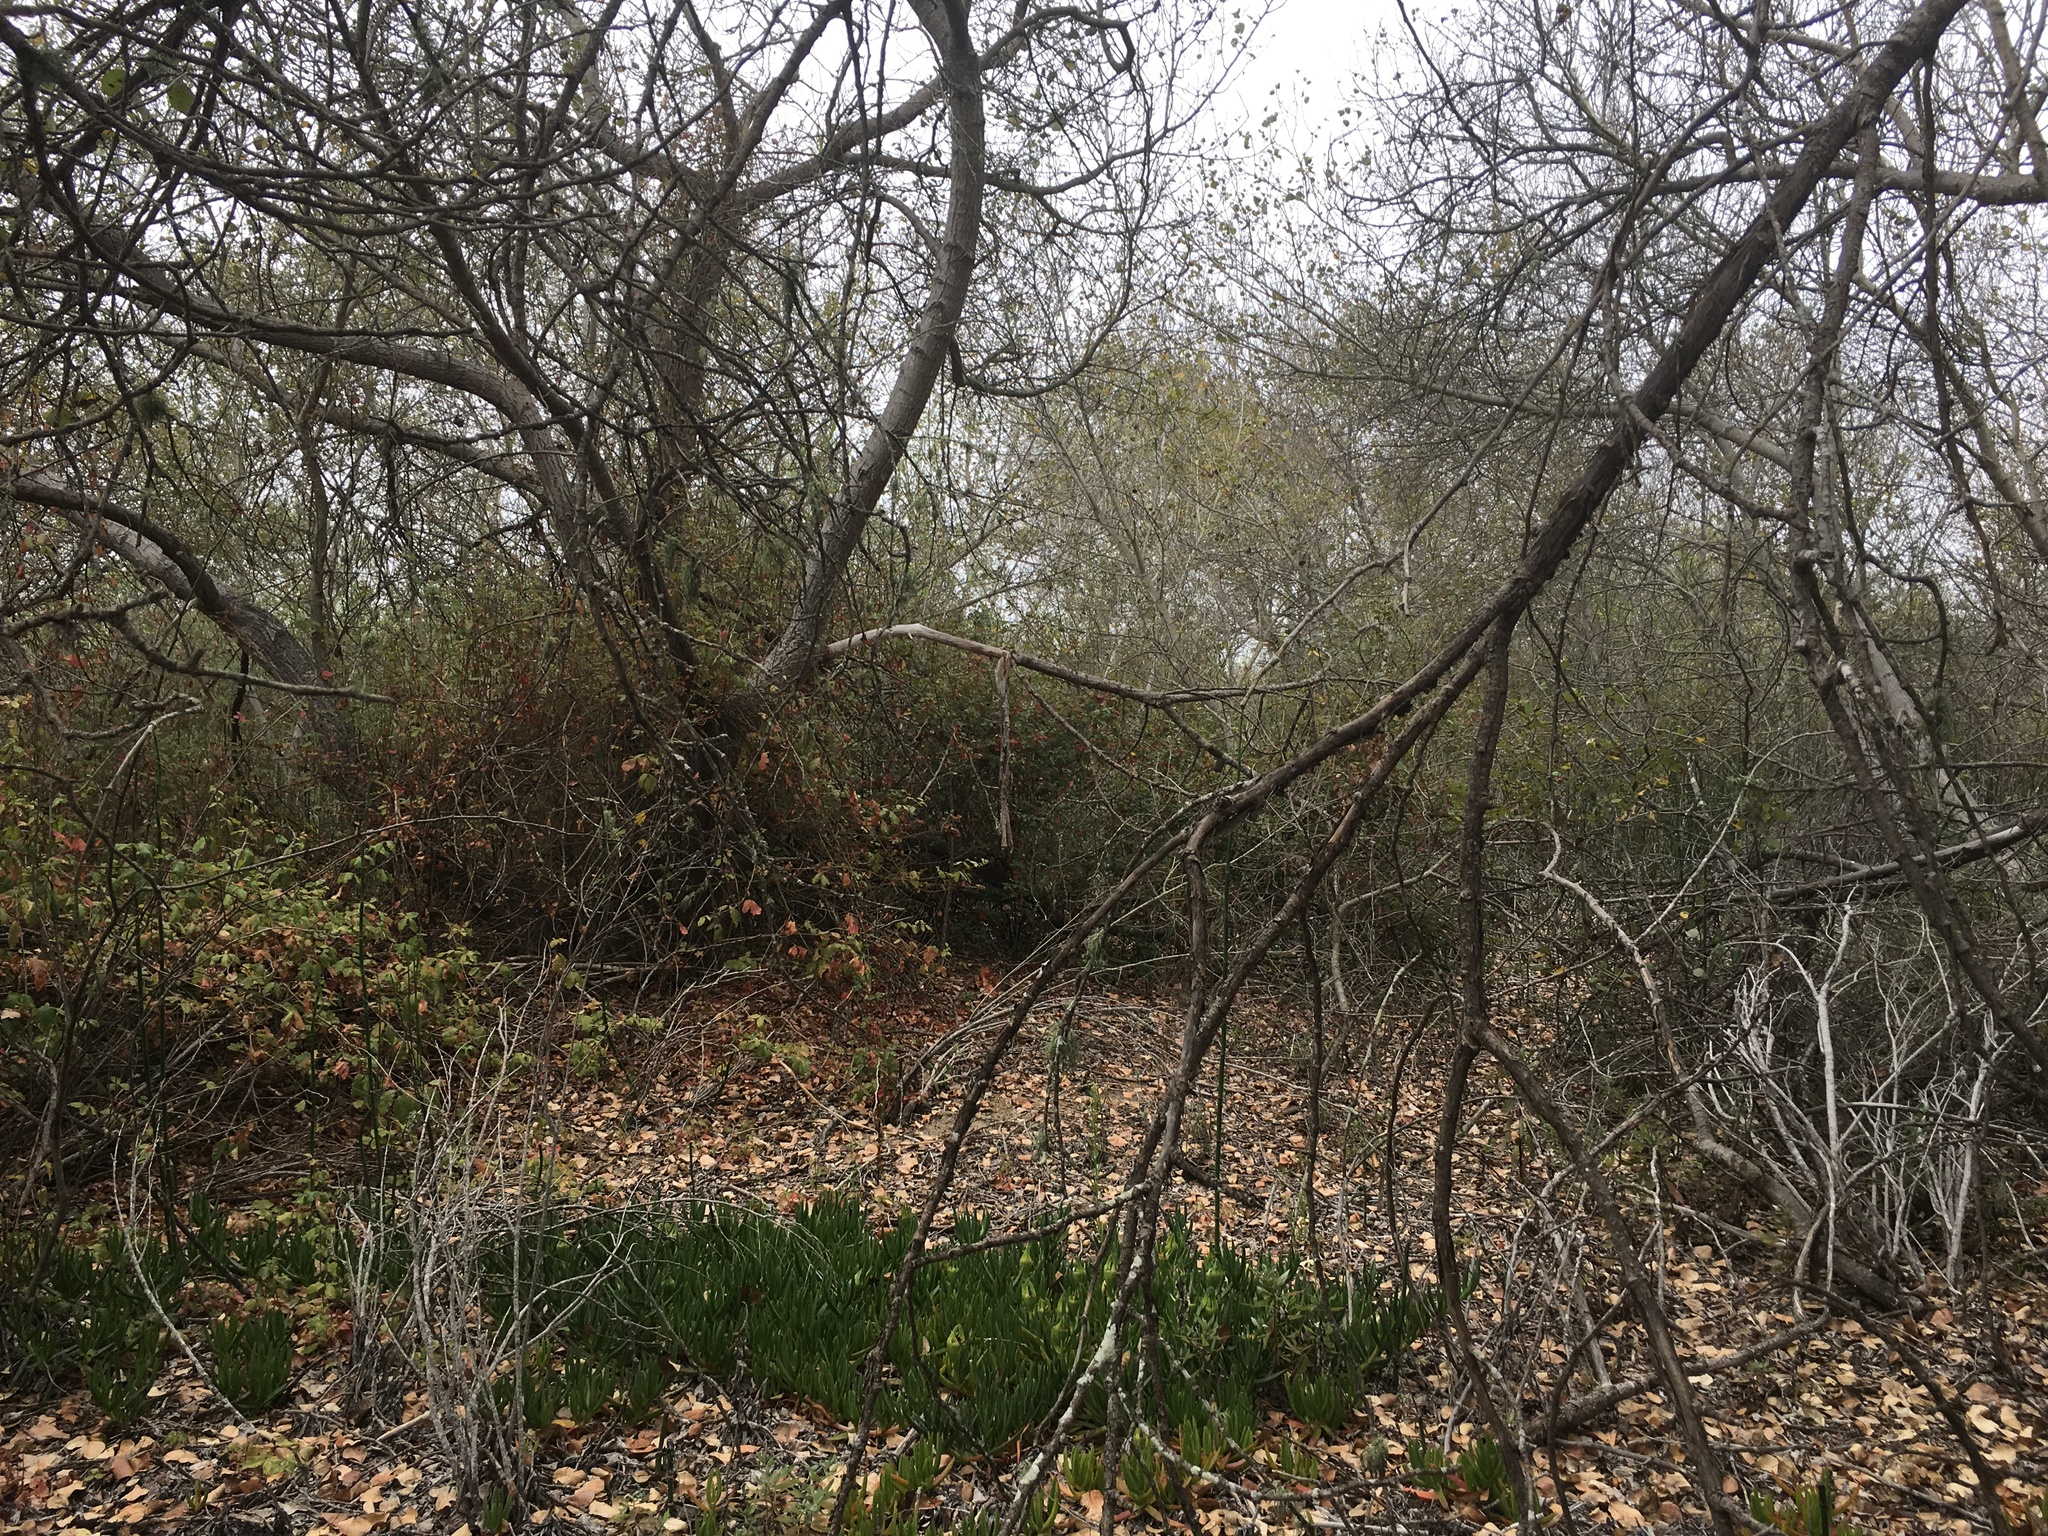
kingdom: Plantae
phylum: Tracheophyta
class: Magnoliopsida
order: Malpighiales
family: Salicaceae
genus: Populus
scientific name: Populus trichocarpa
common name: Black cottonwood
